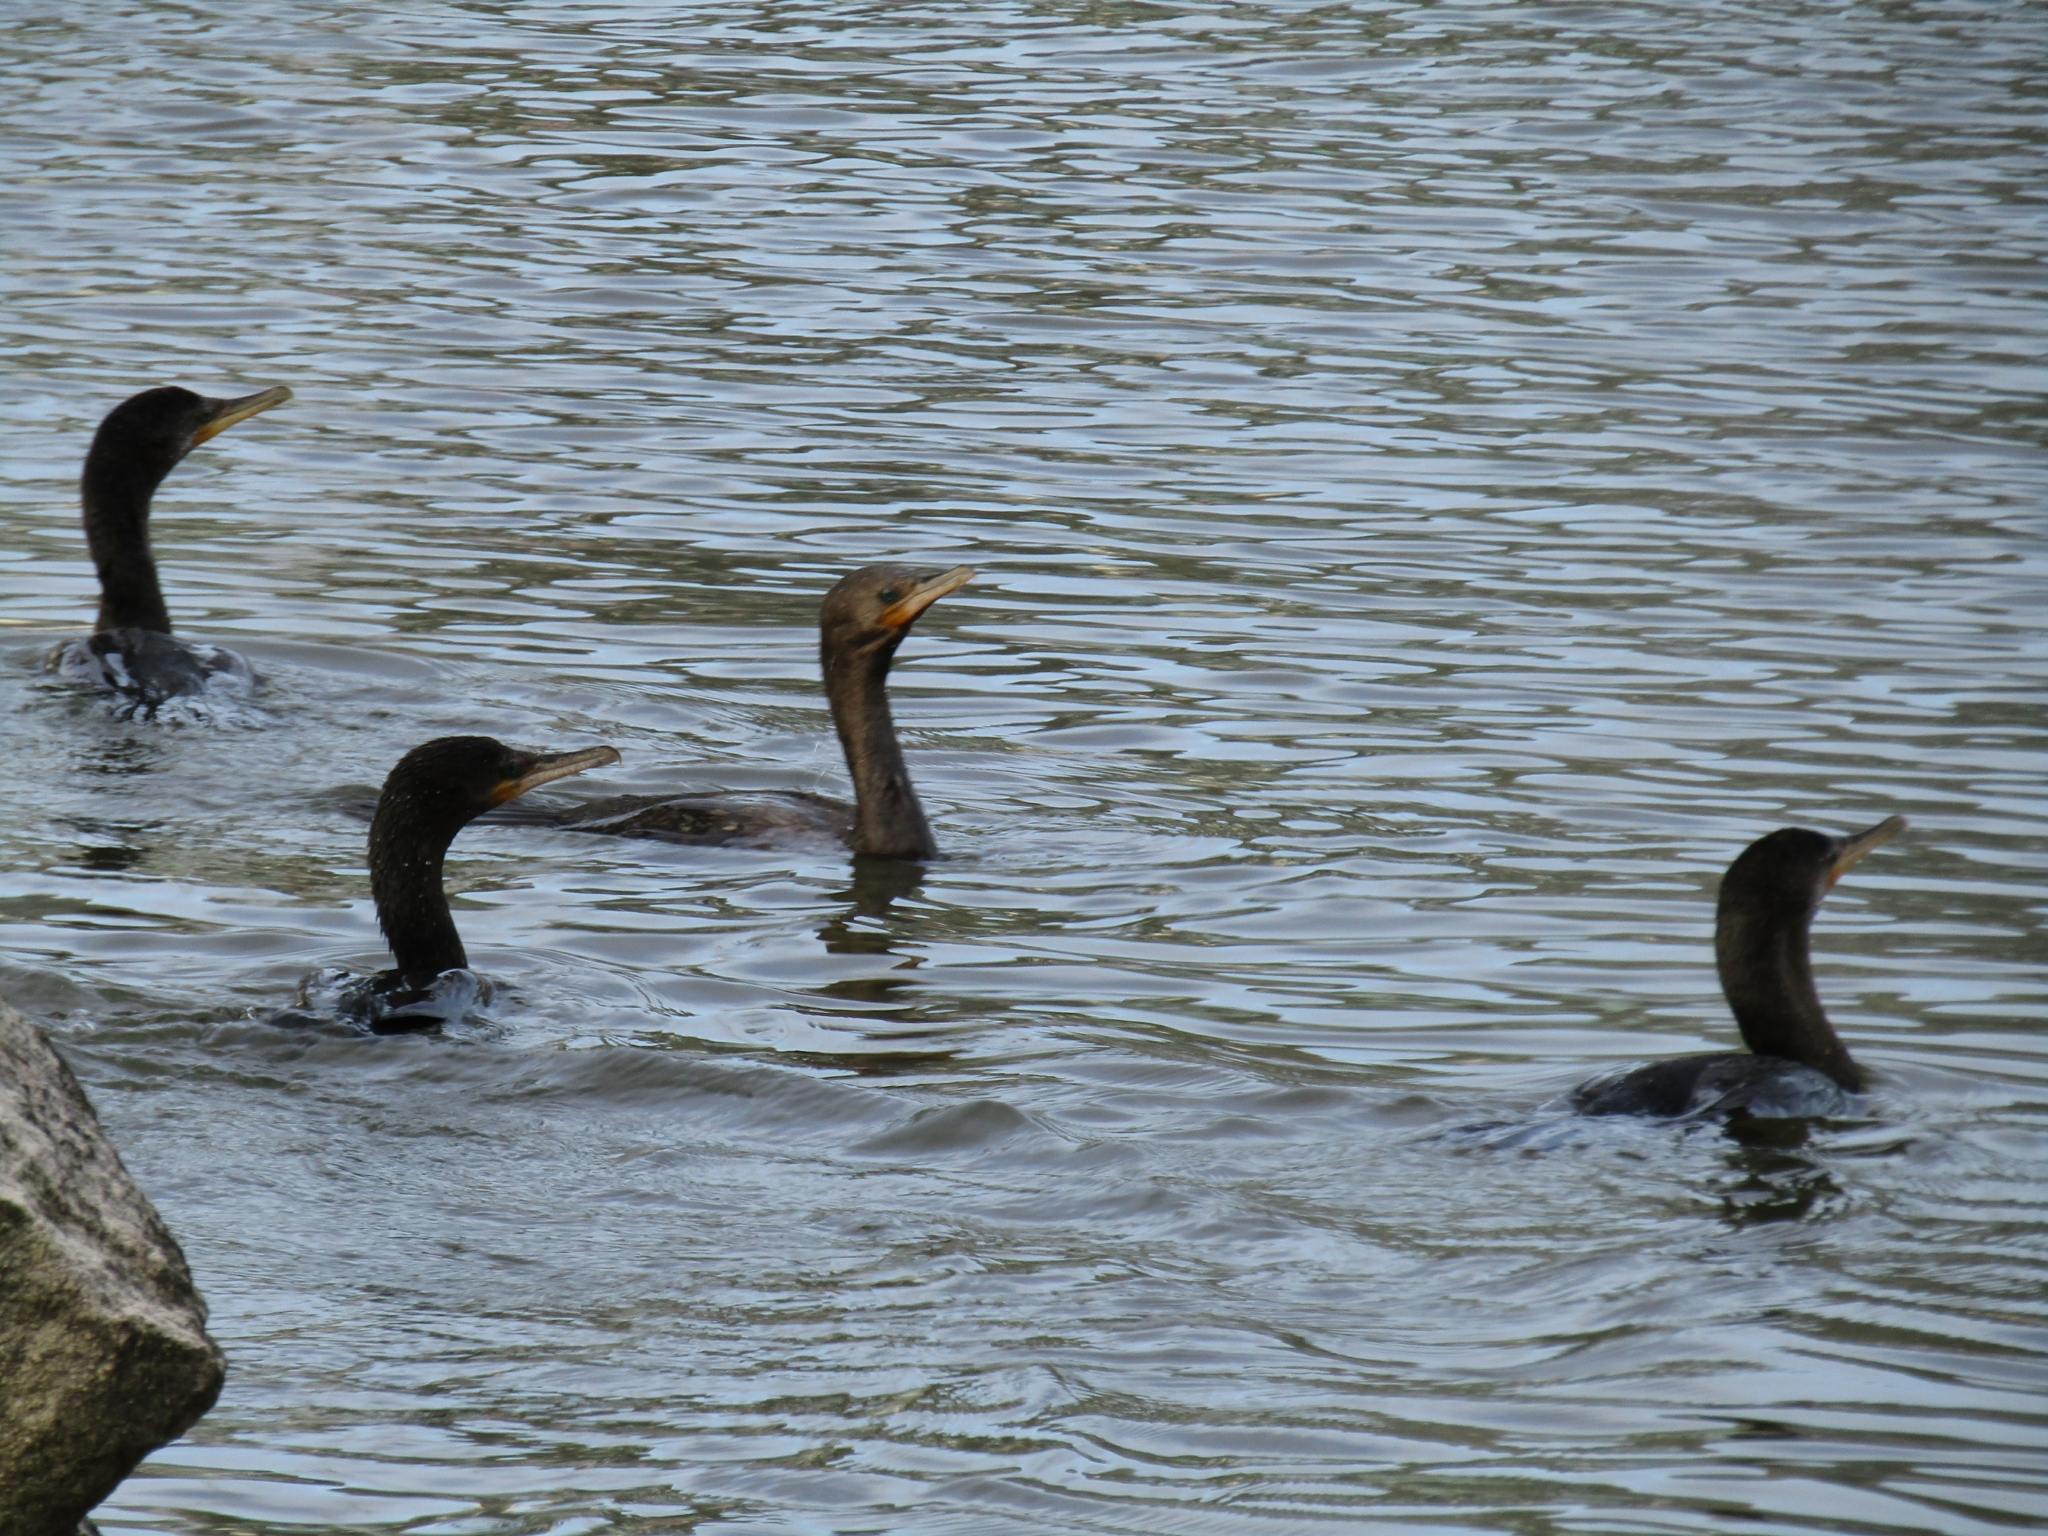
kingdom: Animalia
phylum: Chordata
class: Aves
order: Suliformes
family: Phalacrocoracidae
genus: Phalacrocorax
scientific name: Phalacrocorax brasilianus
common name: Neotropic cormorant
